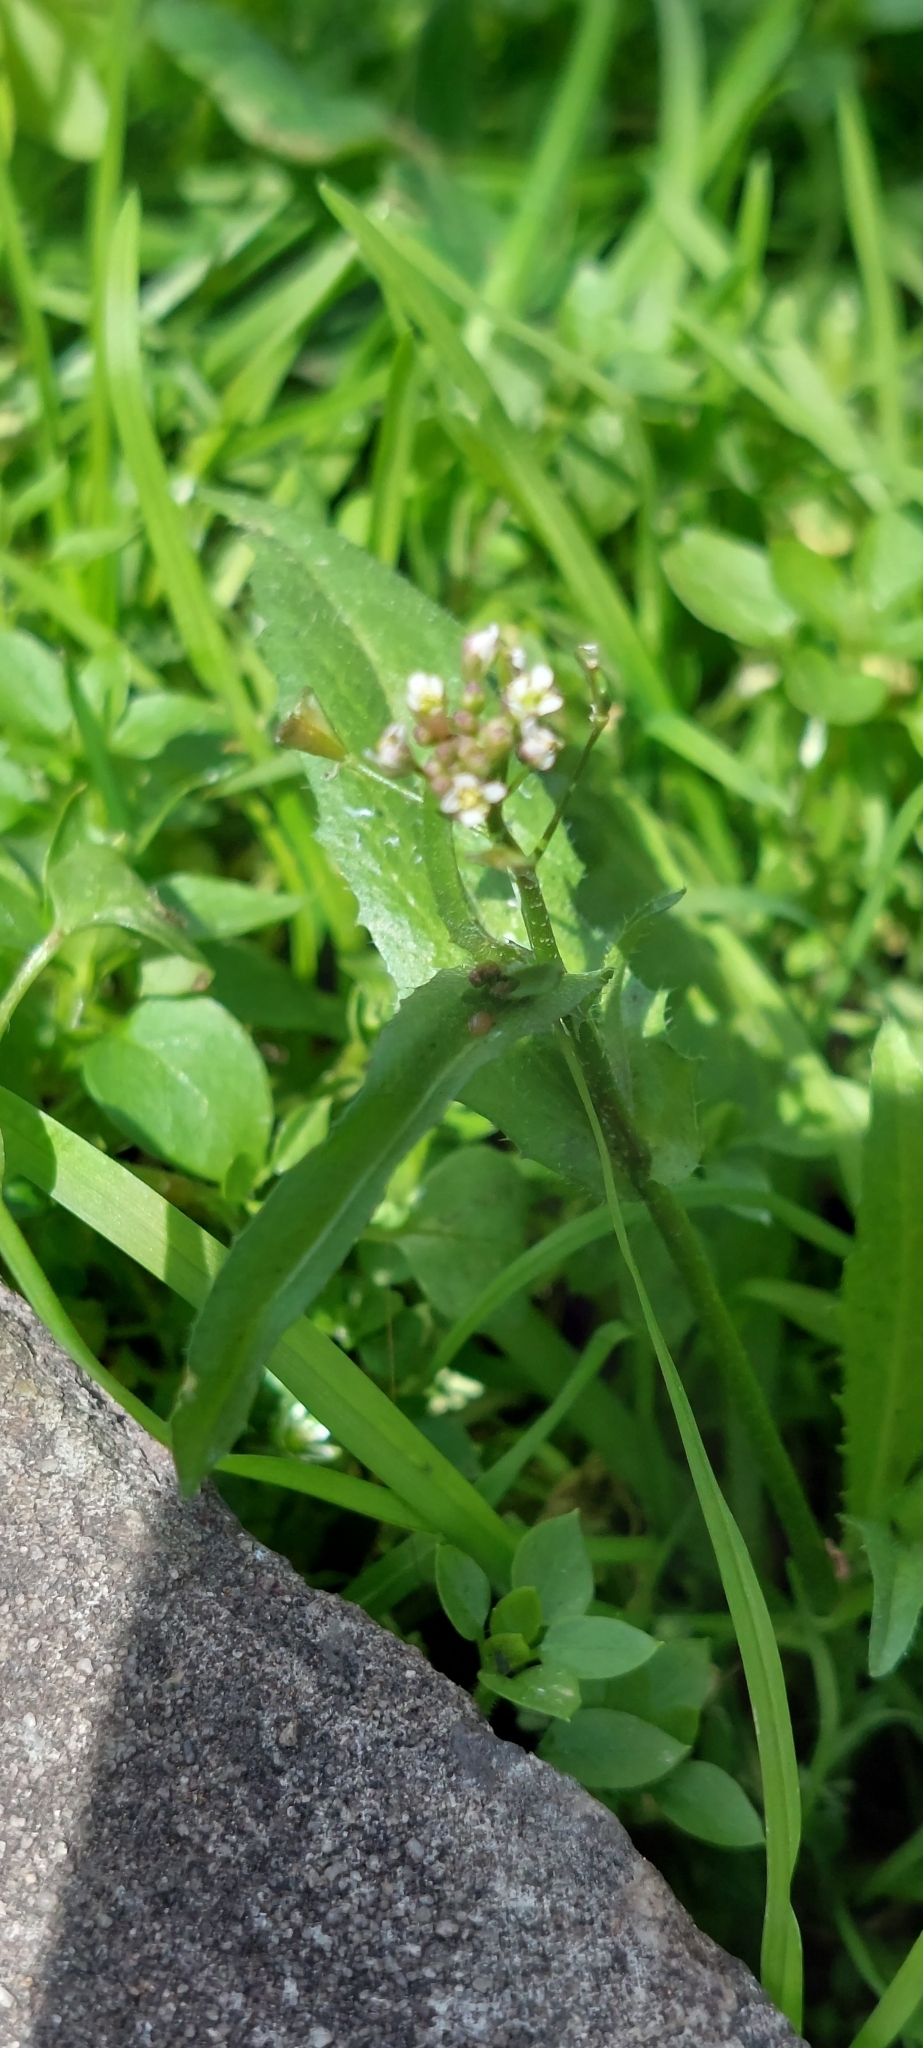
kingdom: Plantae
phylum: Tracheophyta
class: Magnoliopsida
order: Brassicales
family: Brassicaceae
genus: Capsella
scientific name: Capsella bursa-pastoris
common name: Shepherd's purse
